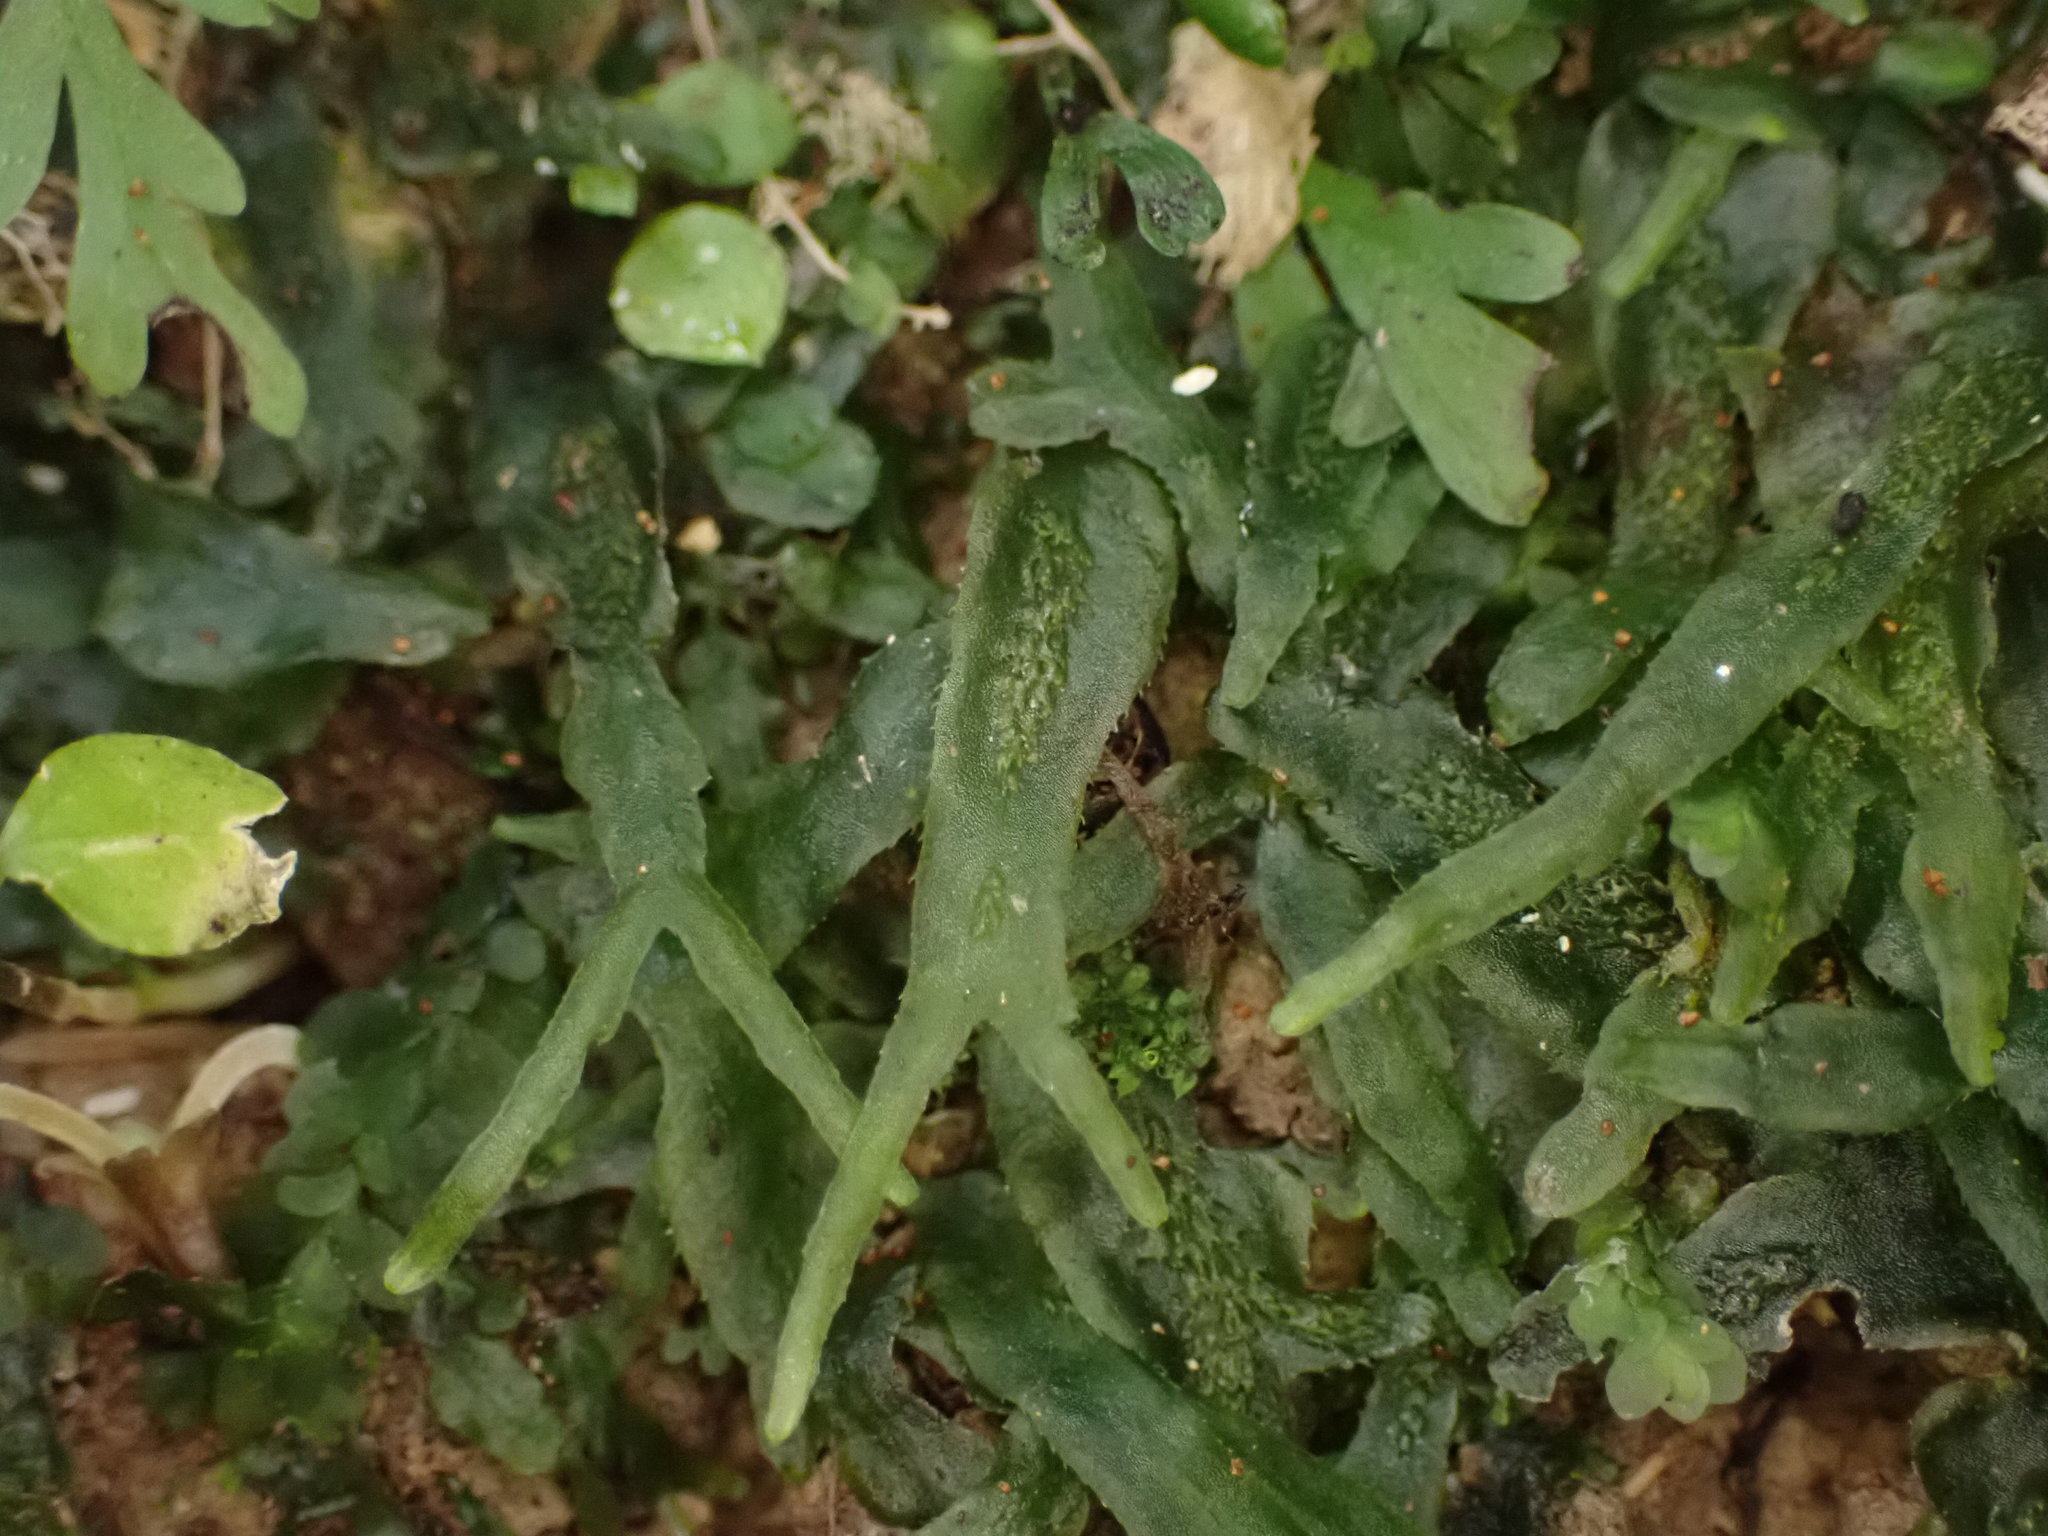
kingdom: Plantae
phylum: Marchantiophyta
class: Jungermanniopsida
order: Pallaviciniales
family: Pallaviciniaceae
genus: Prionothallus
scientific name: Prionothallus xiphoides
